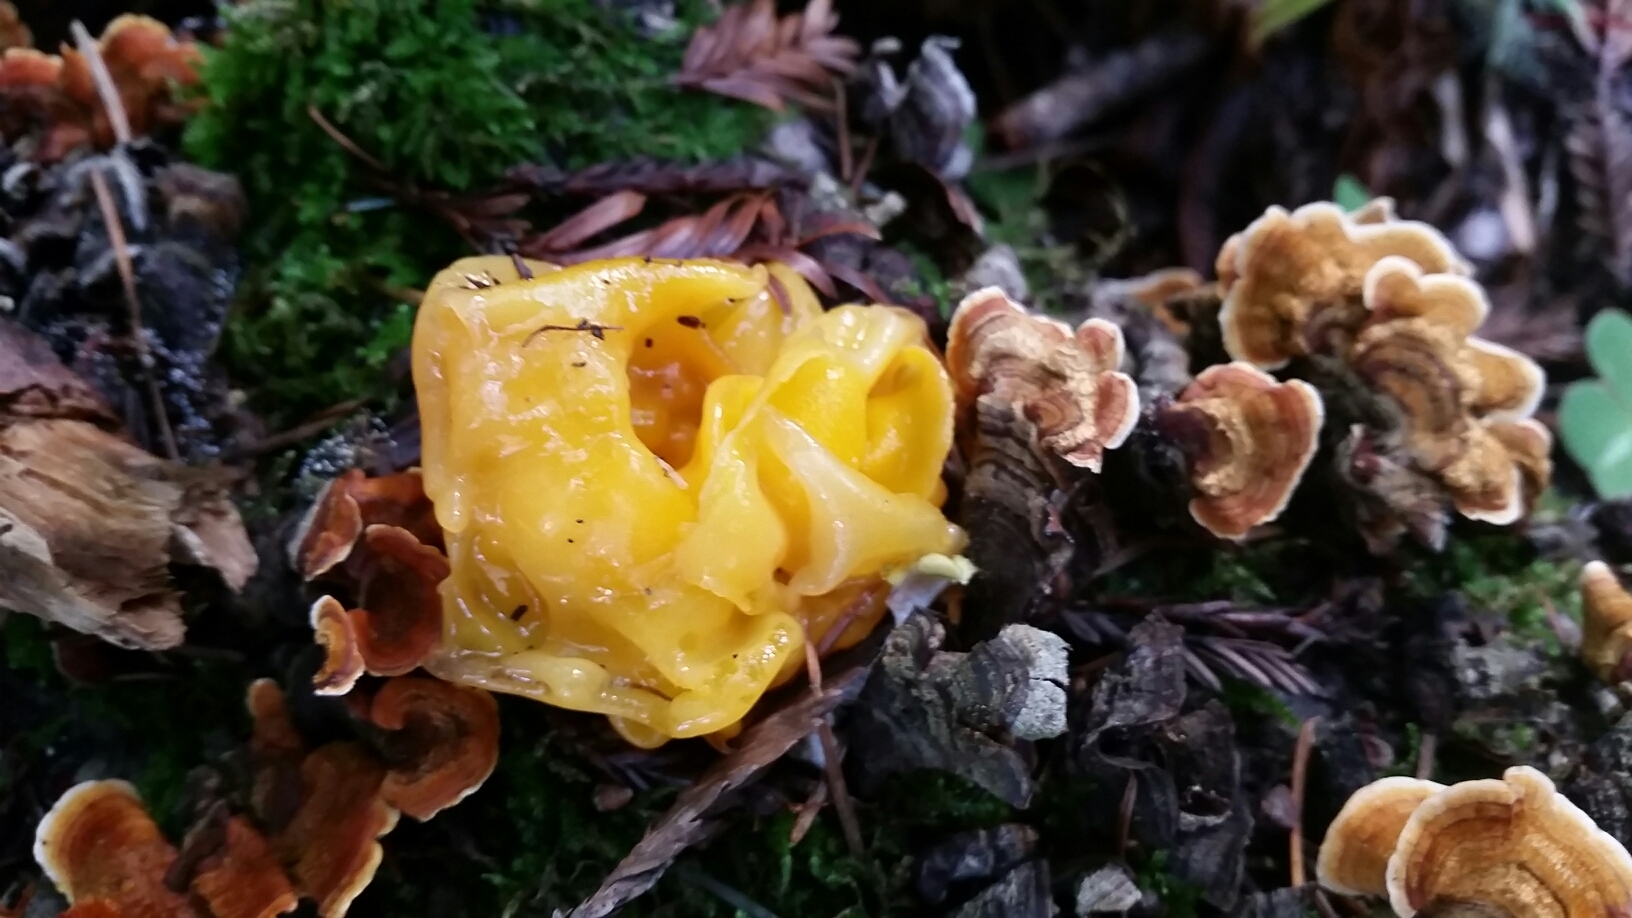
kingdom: Fungi
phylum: Basidiomycota
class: Tremellomycetes
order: Tremellales
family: Naemateliaceae
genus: Naematelia
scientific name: Naematelia aurantia
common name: Golden ear
